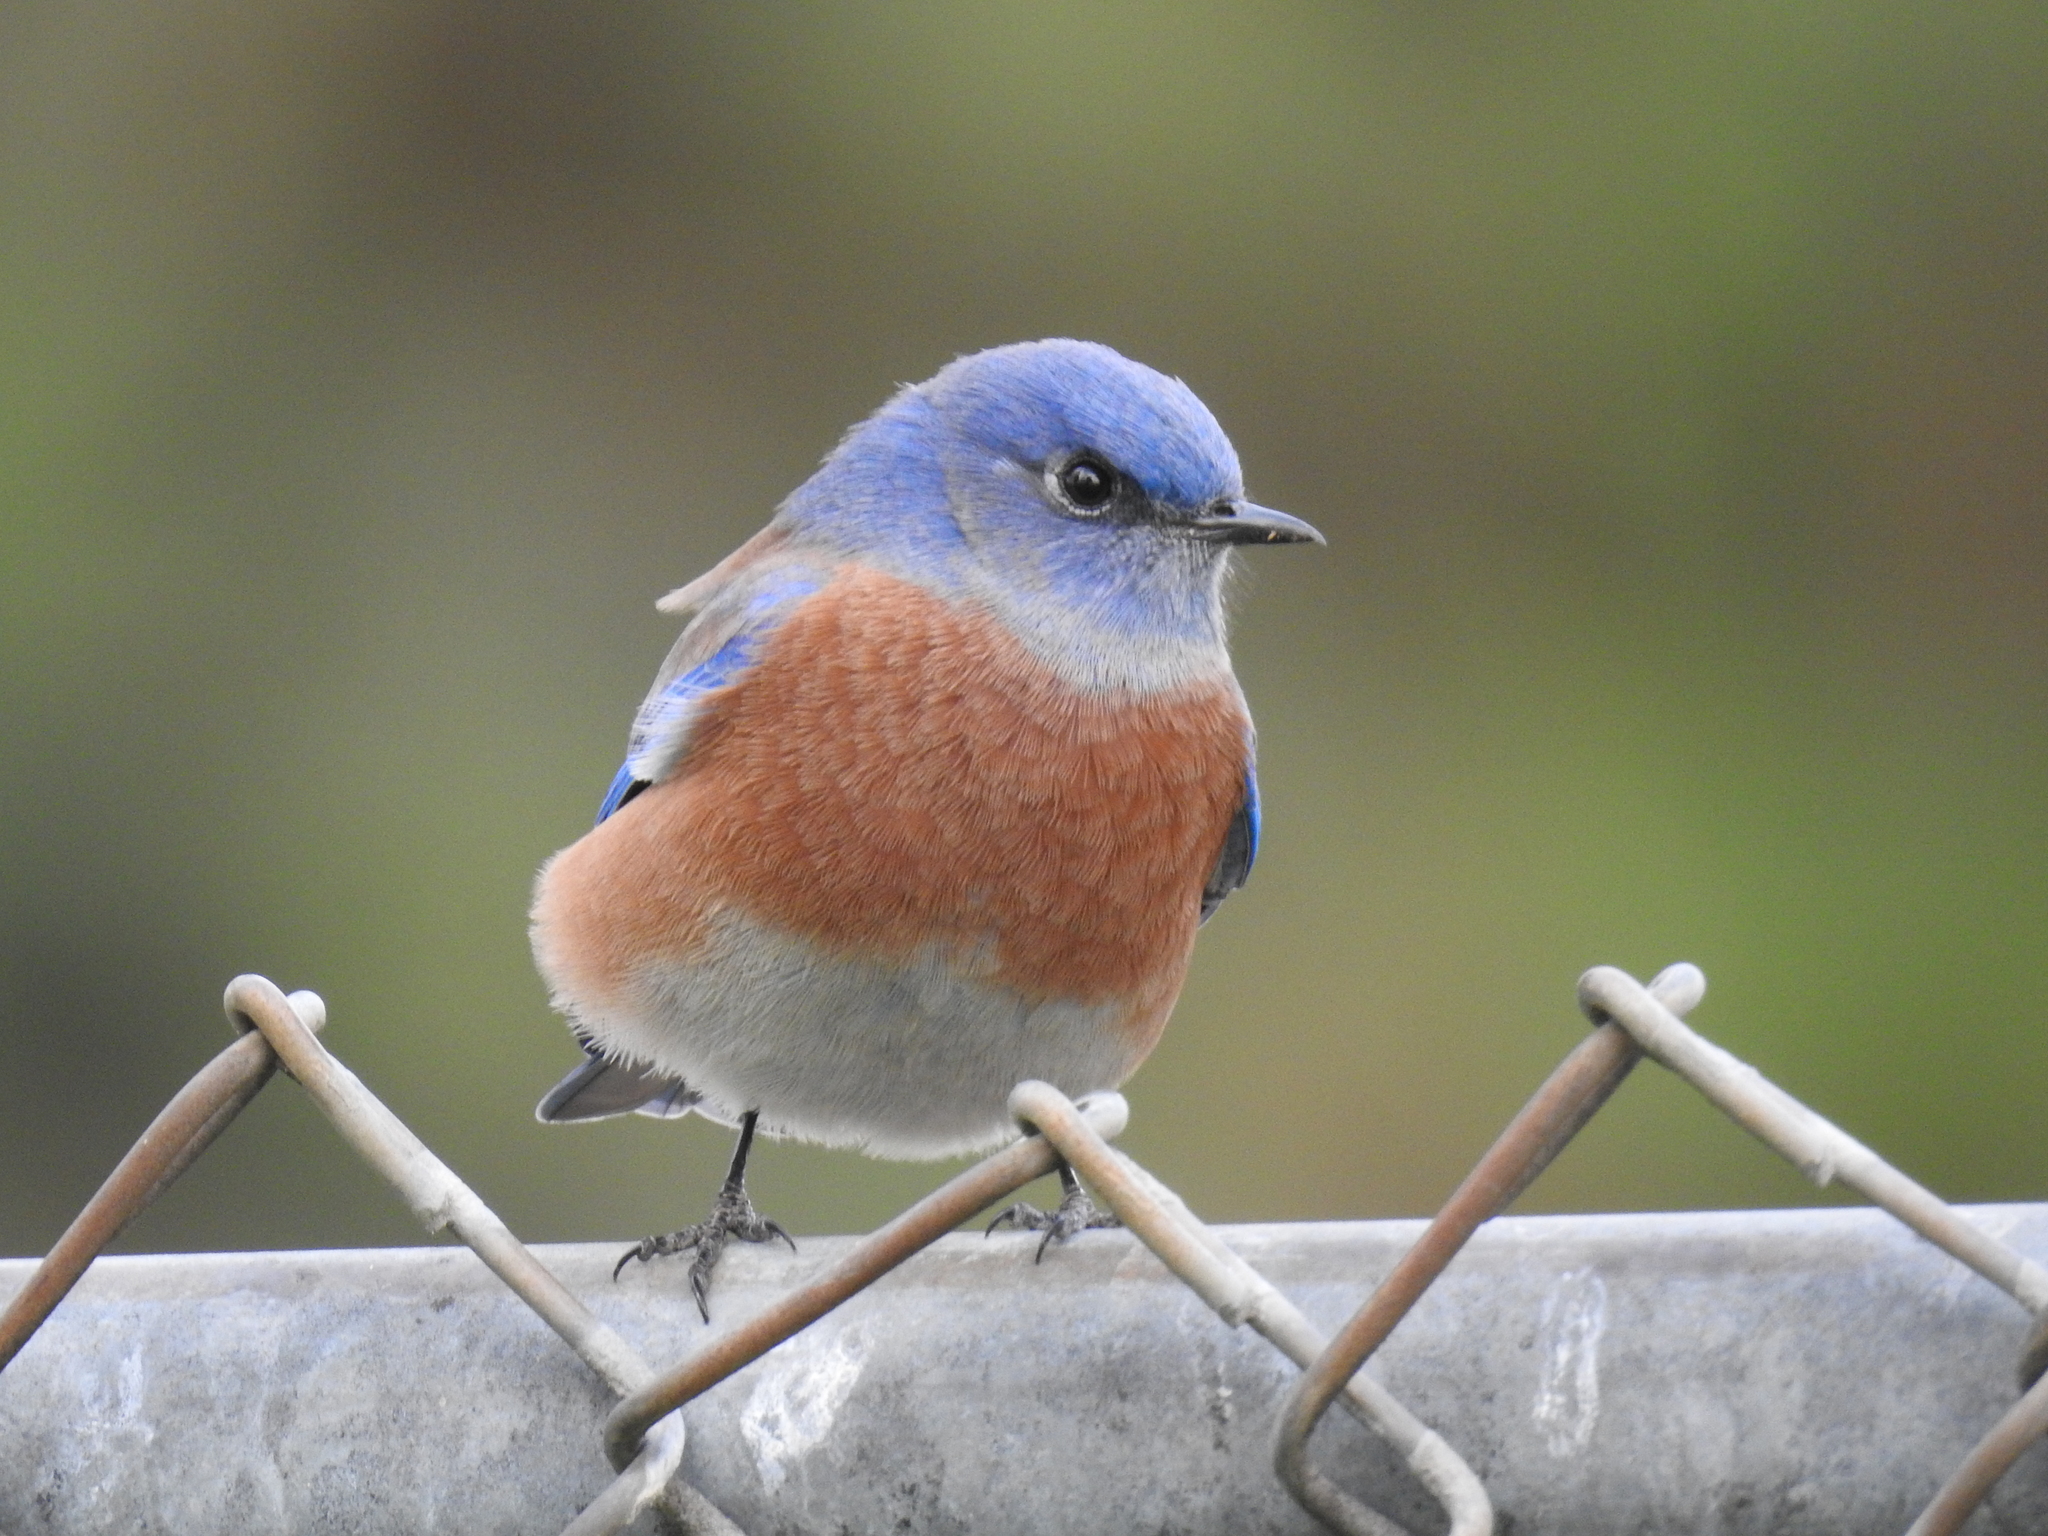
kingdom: Animalia
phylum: Chordata
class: Aves
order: Passeriformes
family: Turdidae
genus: Sialia
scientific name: Sialia mexicana
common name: Western bluebird
